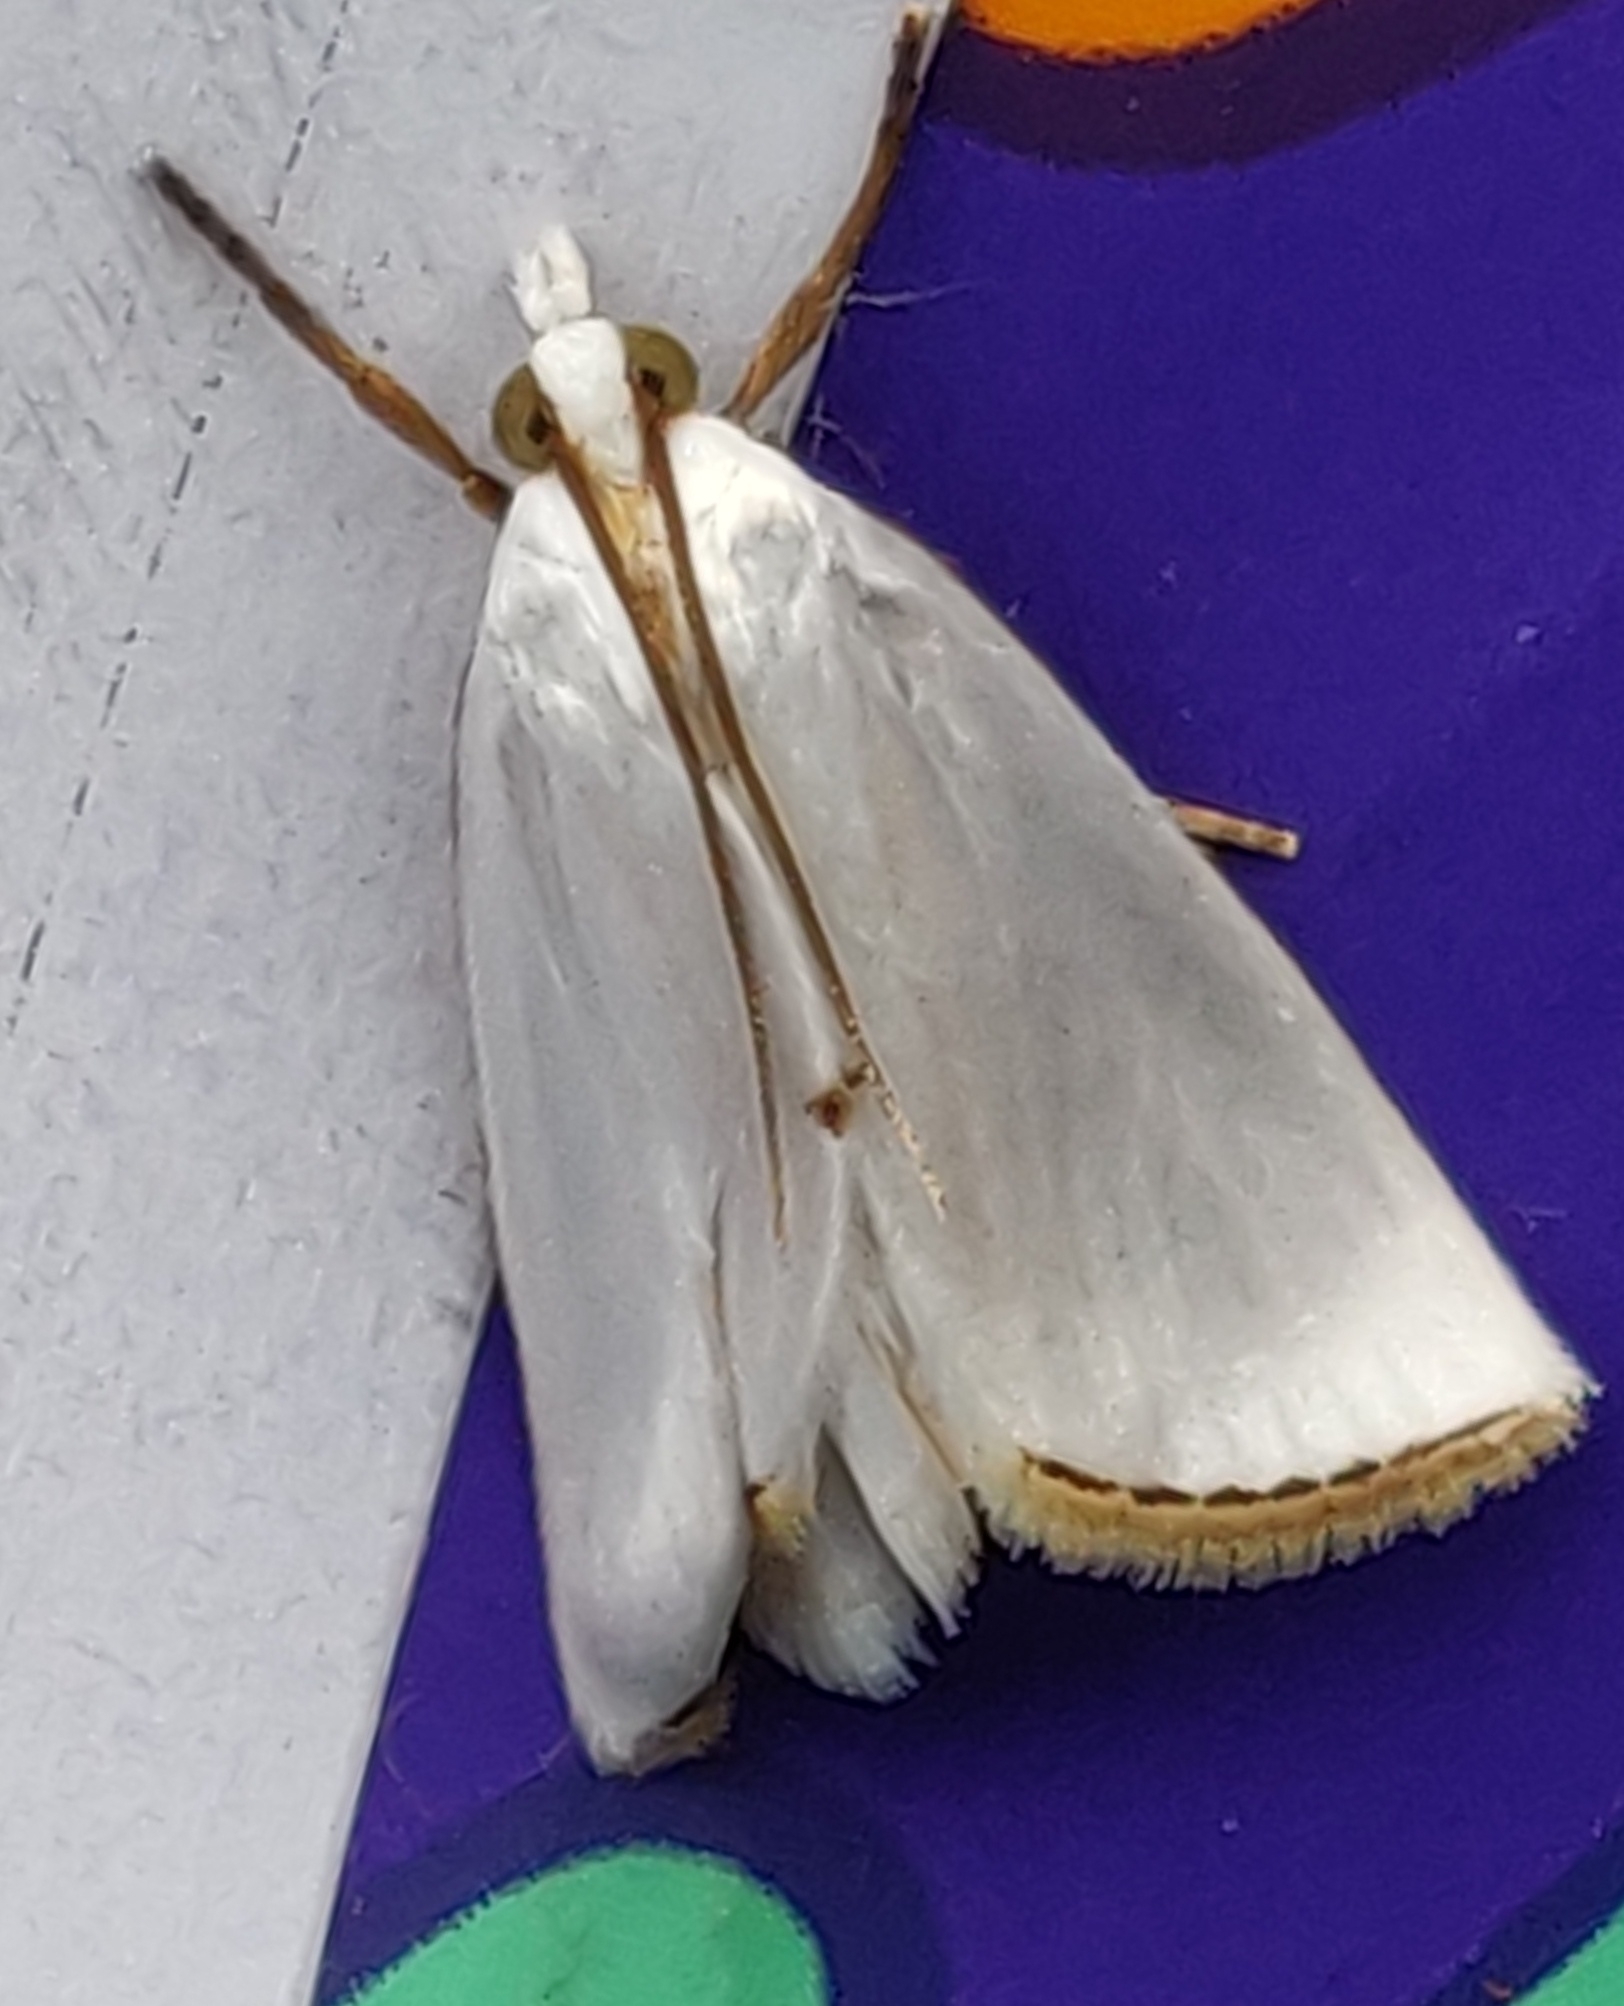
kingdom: Animalia
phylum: Arthropoda
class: Insecta
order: Lepidoptera
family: Crambidae
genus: Argyria
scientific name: Argyria nivalis
